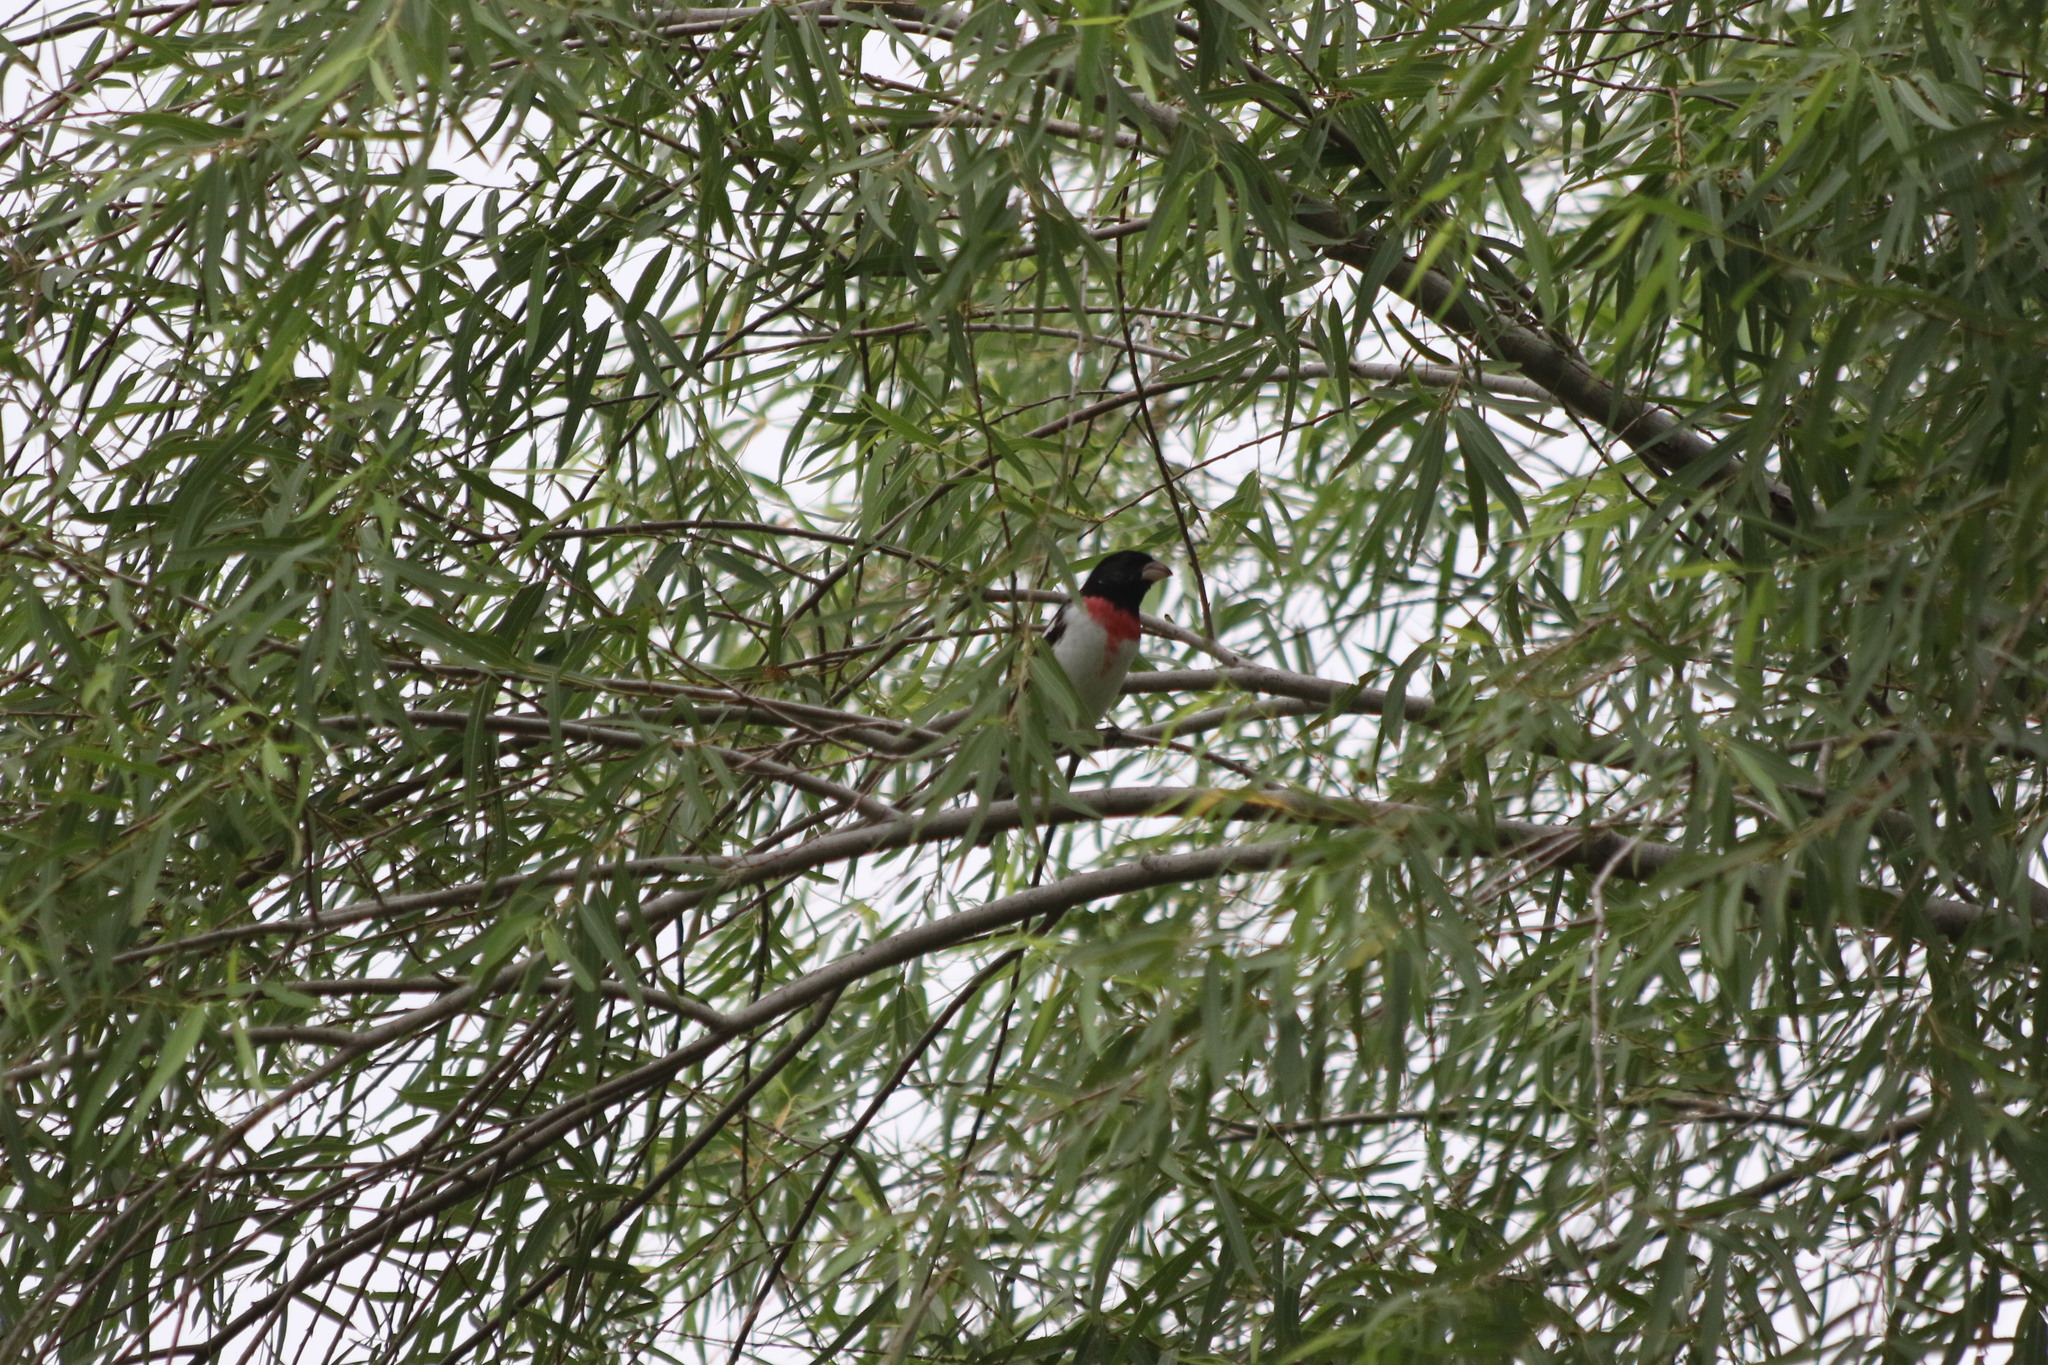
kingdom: Animalia
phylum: Chordata
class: Aves
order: Passeriformes
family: Cardinalidae
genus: Pheucticus
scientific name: Pheucticus ludovicianus
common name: Rose-breasted grosbeak
